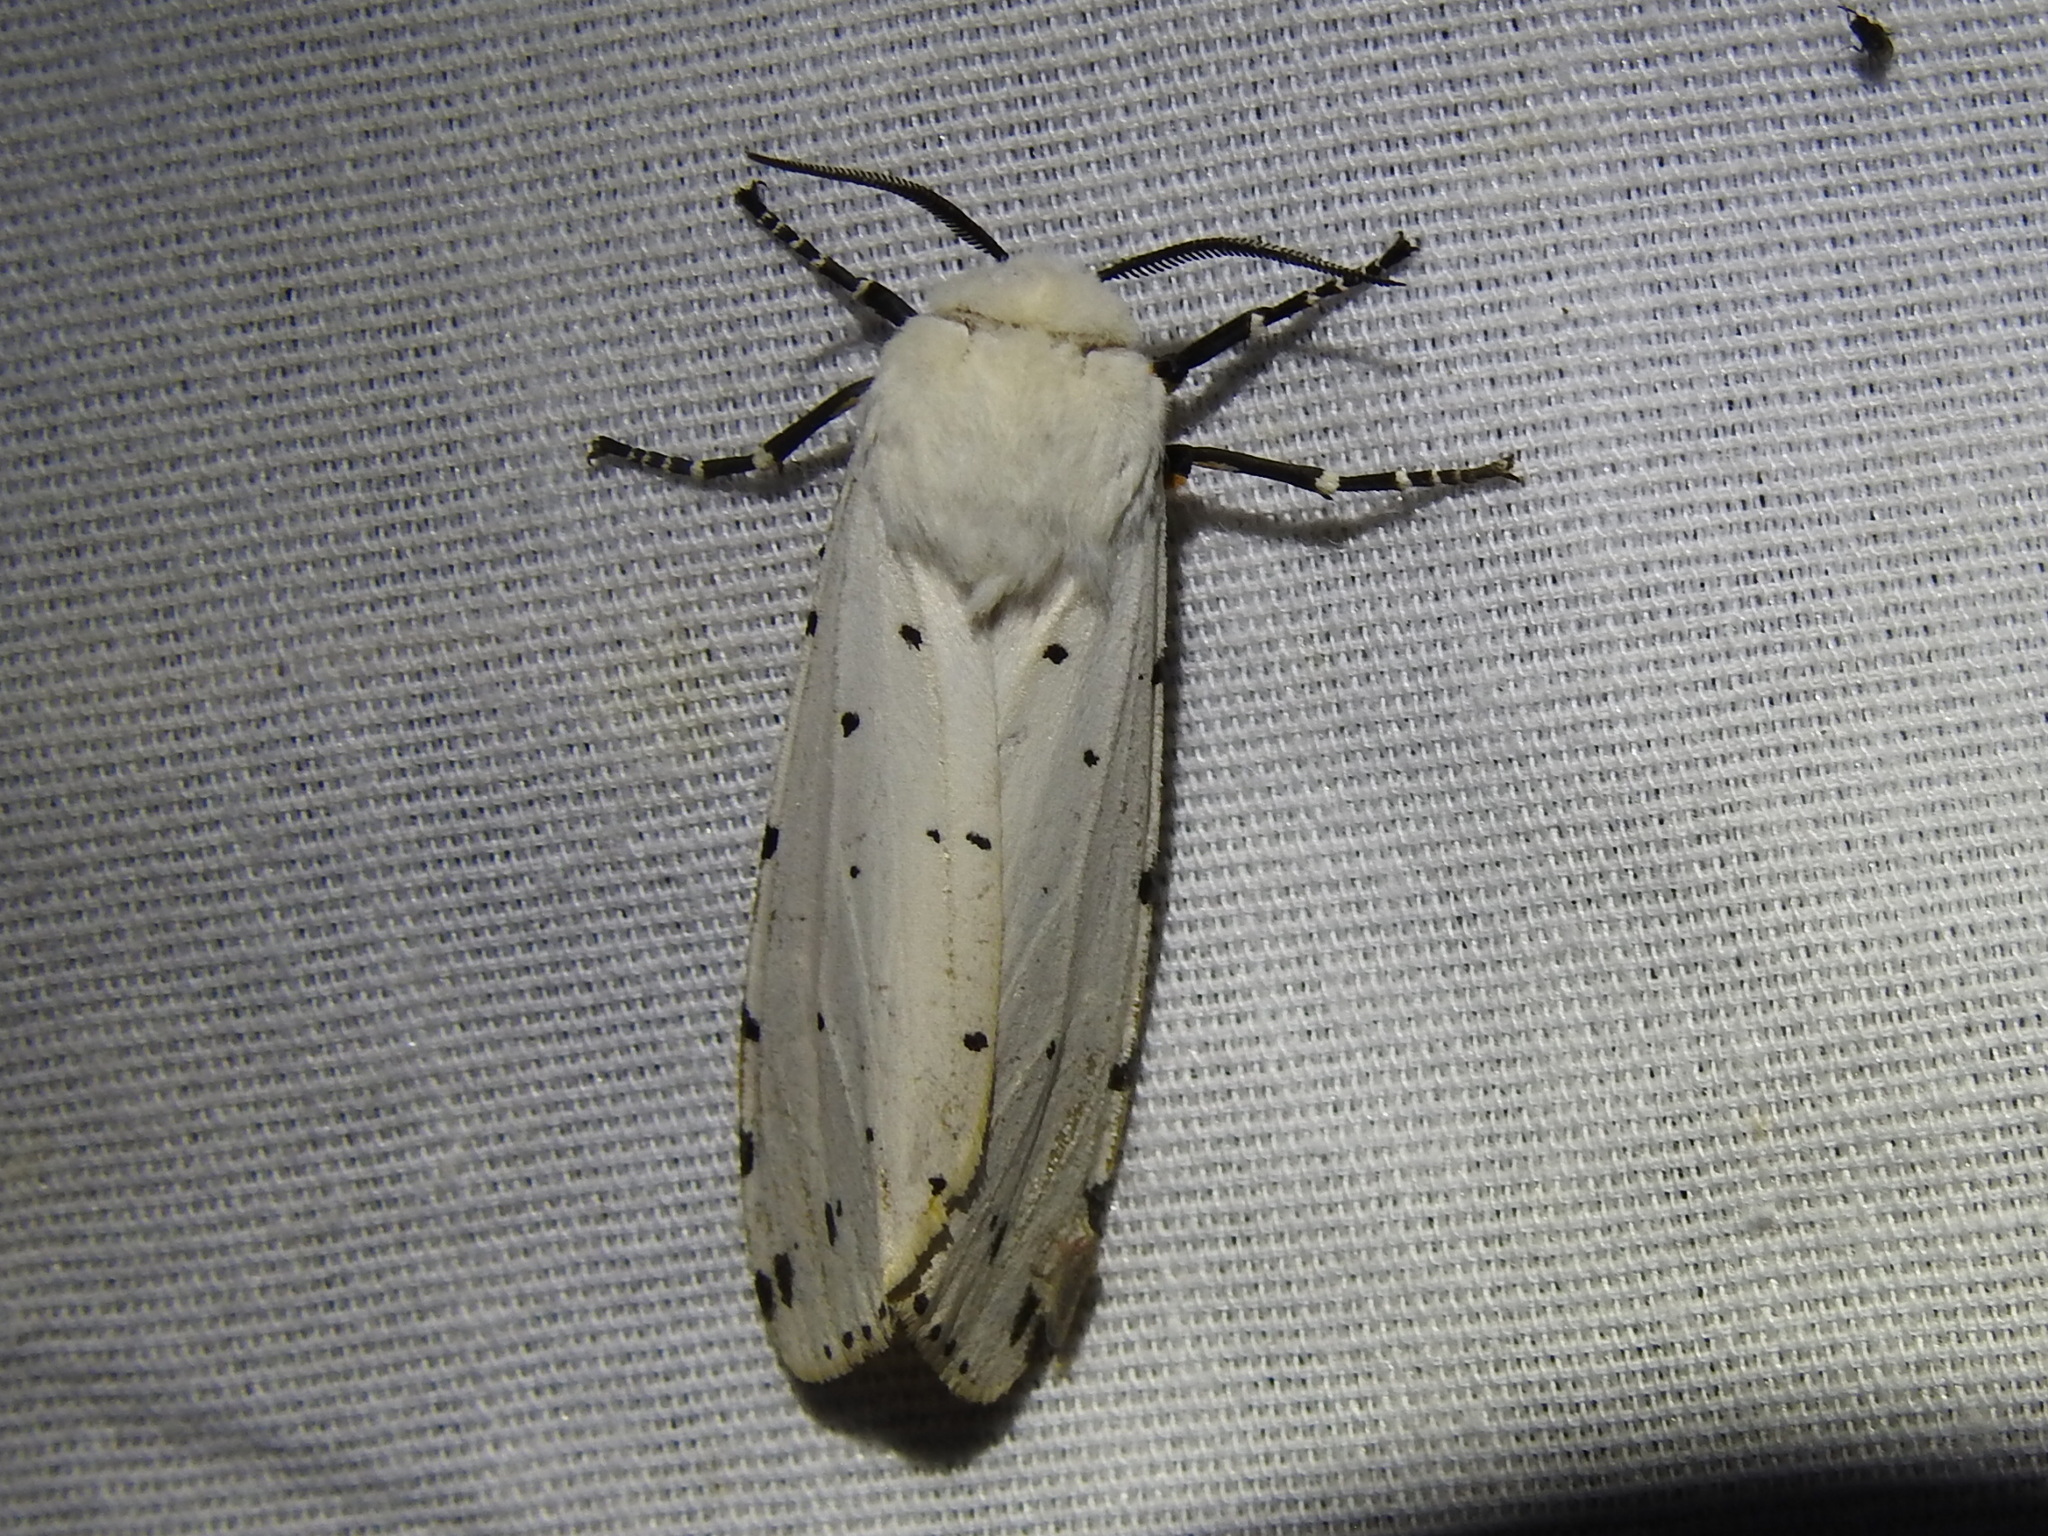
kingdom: Animalia
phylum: Arthropoda
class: Insecta
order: Lepidoptera
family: Erebidae
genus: Estigmene
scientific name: Estigmene acrea
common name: Salt marsh moth
